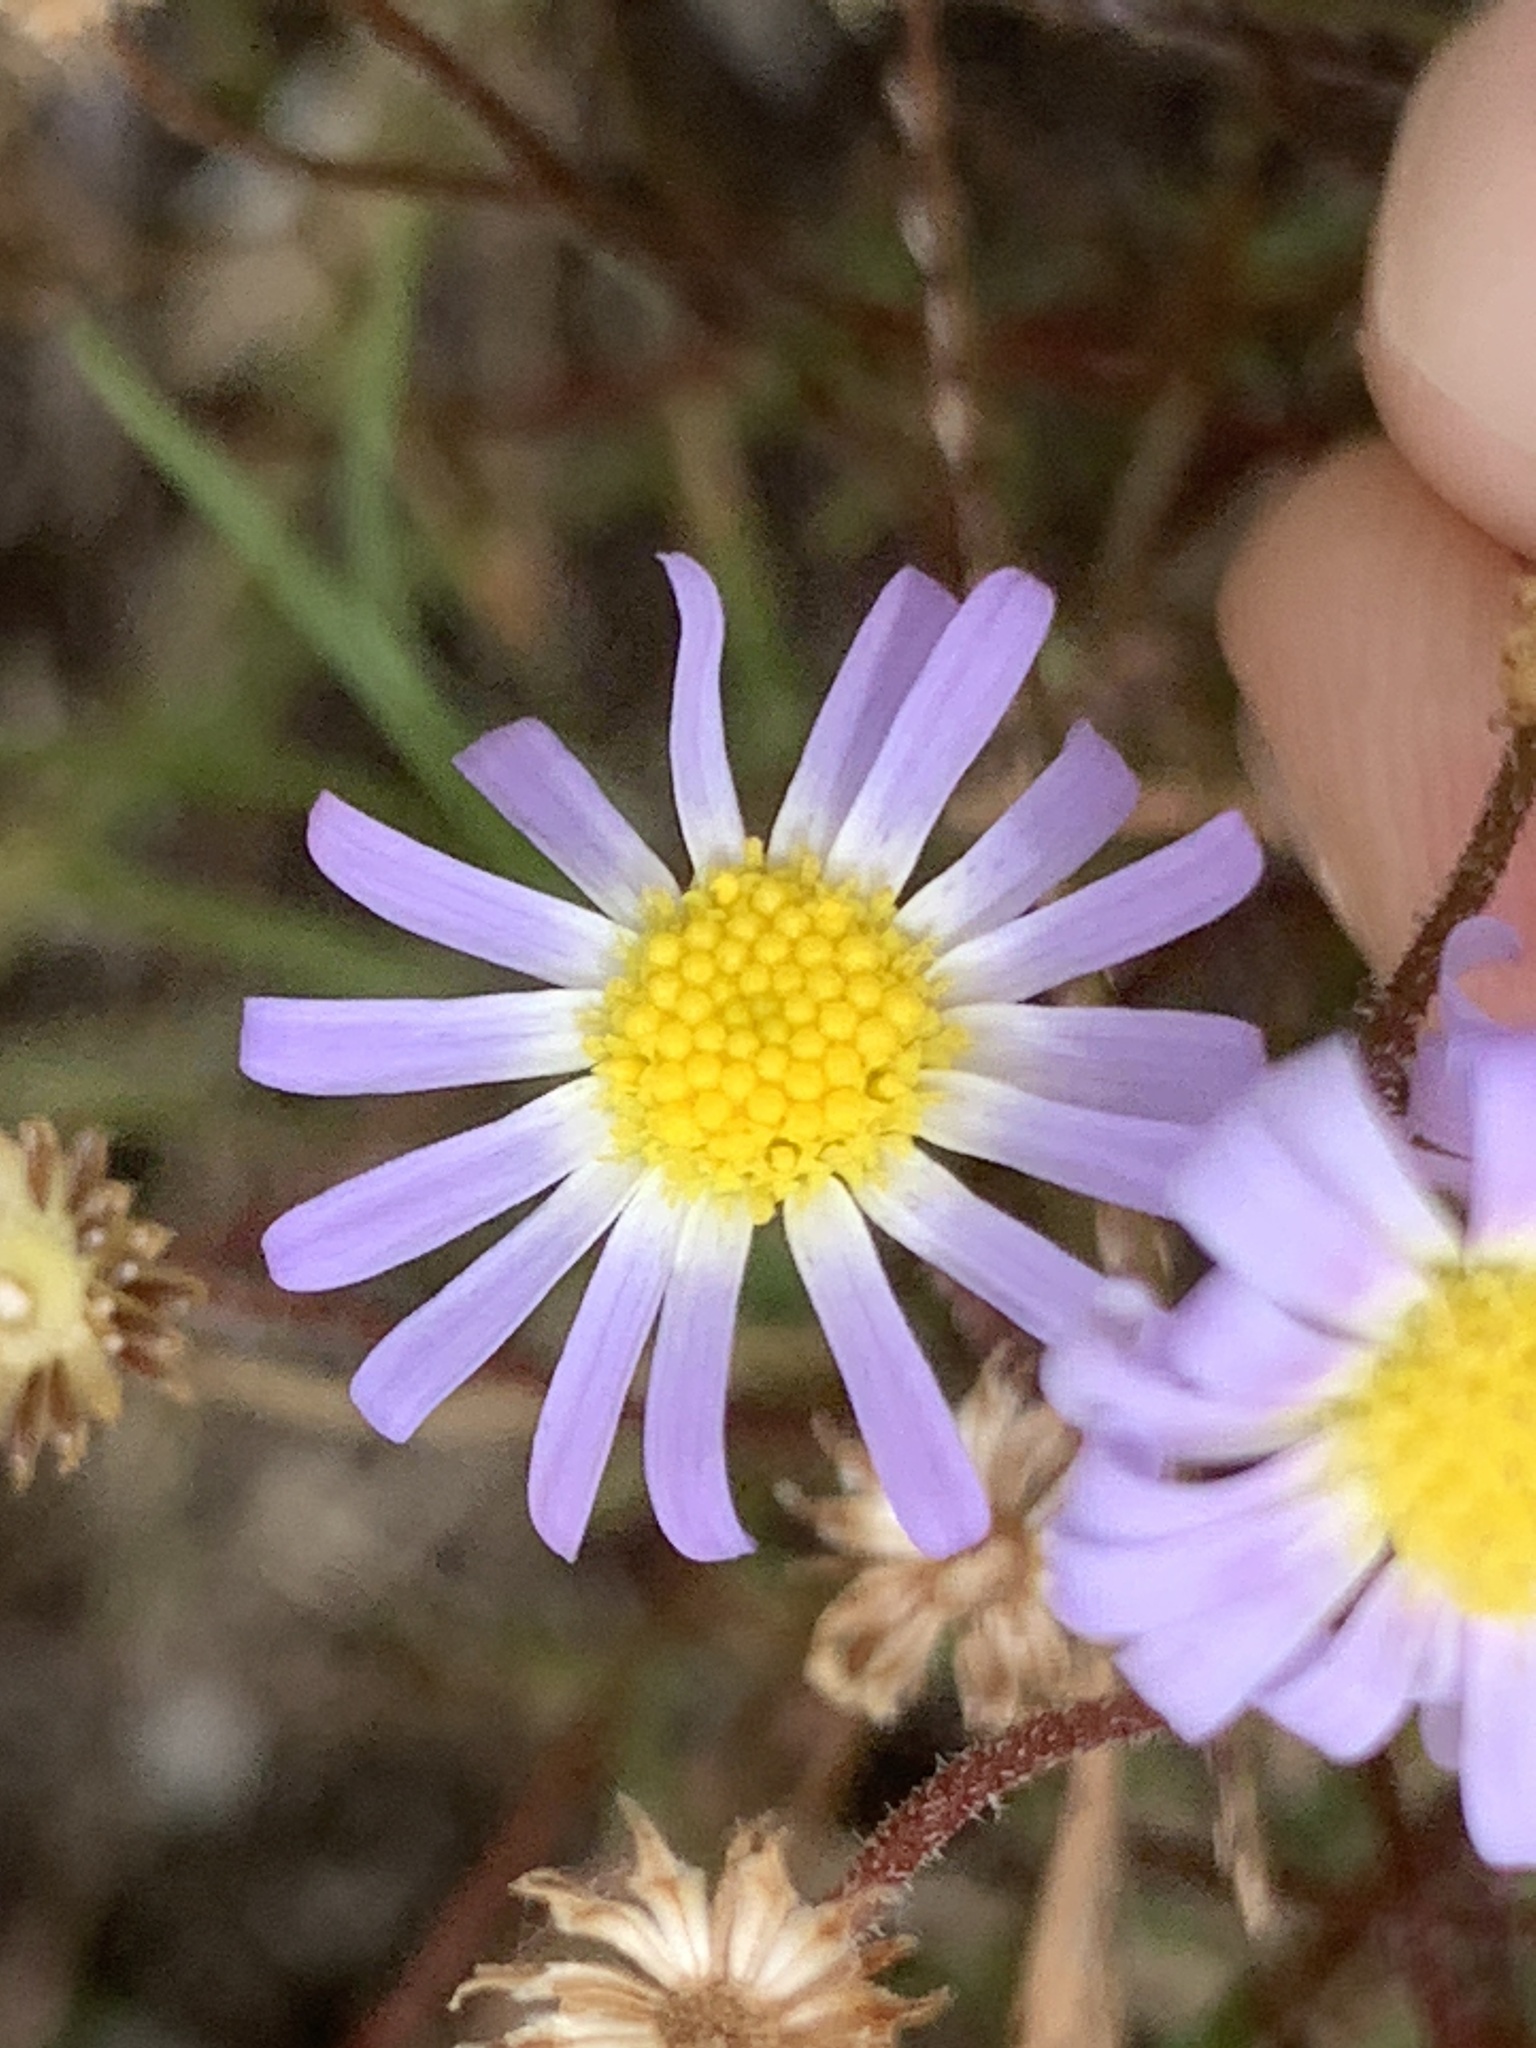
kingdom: Plantae
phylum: Tracheophyta
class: Magnoliopsida
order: Asterales
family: Asteraceae
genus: Felicia
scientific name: Felicia tenella
